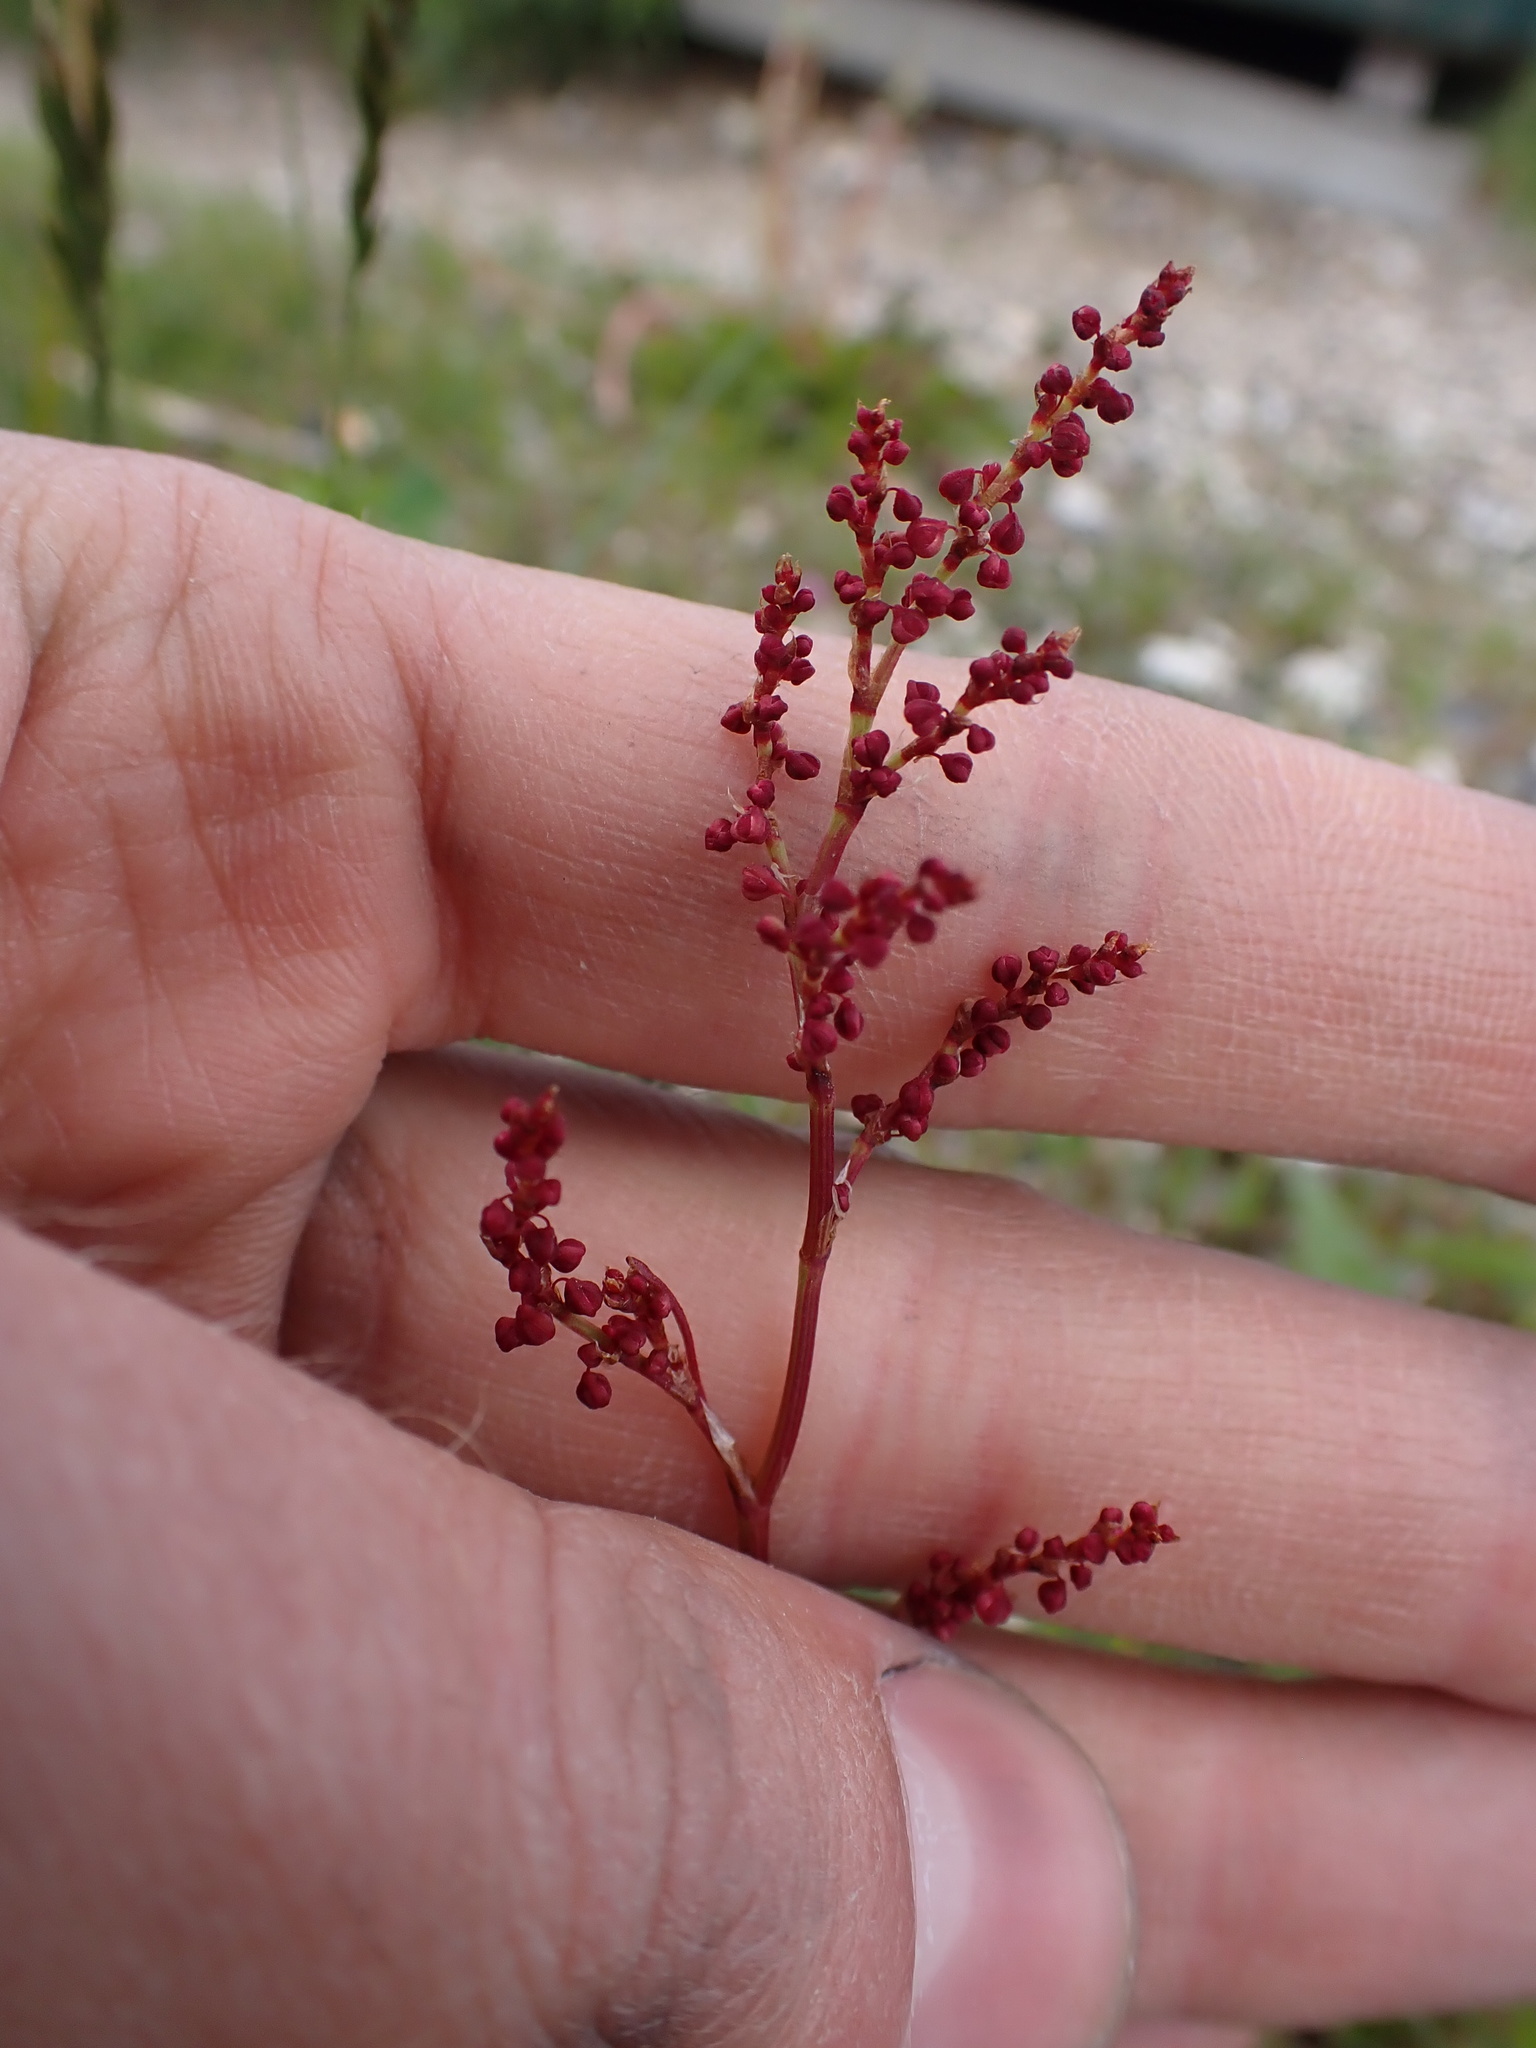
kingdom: Plantae
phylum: Tracheophyta
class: Magnoliopsida
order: Caryophyllales
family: Polygonaceae
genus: Rumex
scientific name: Rumex acetosella
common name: Common sheep sorrel
